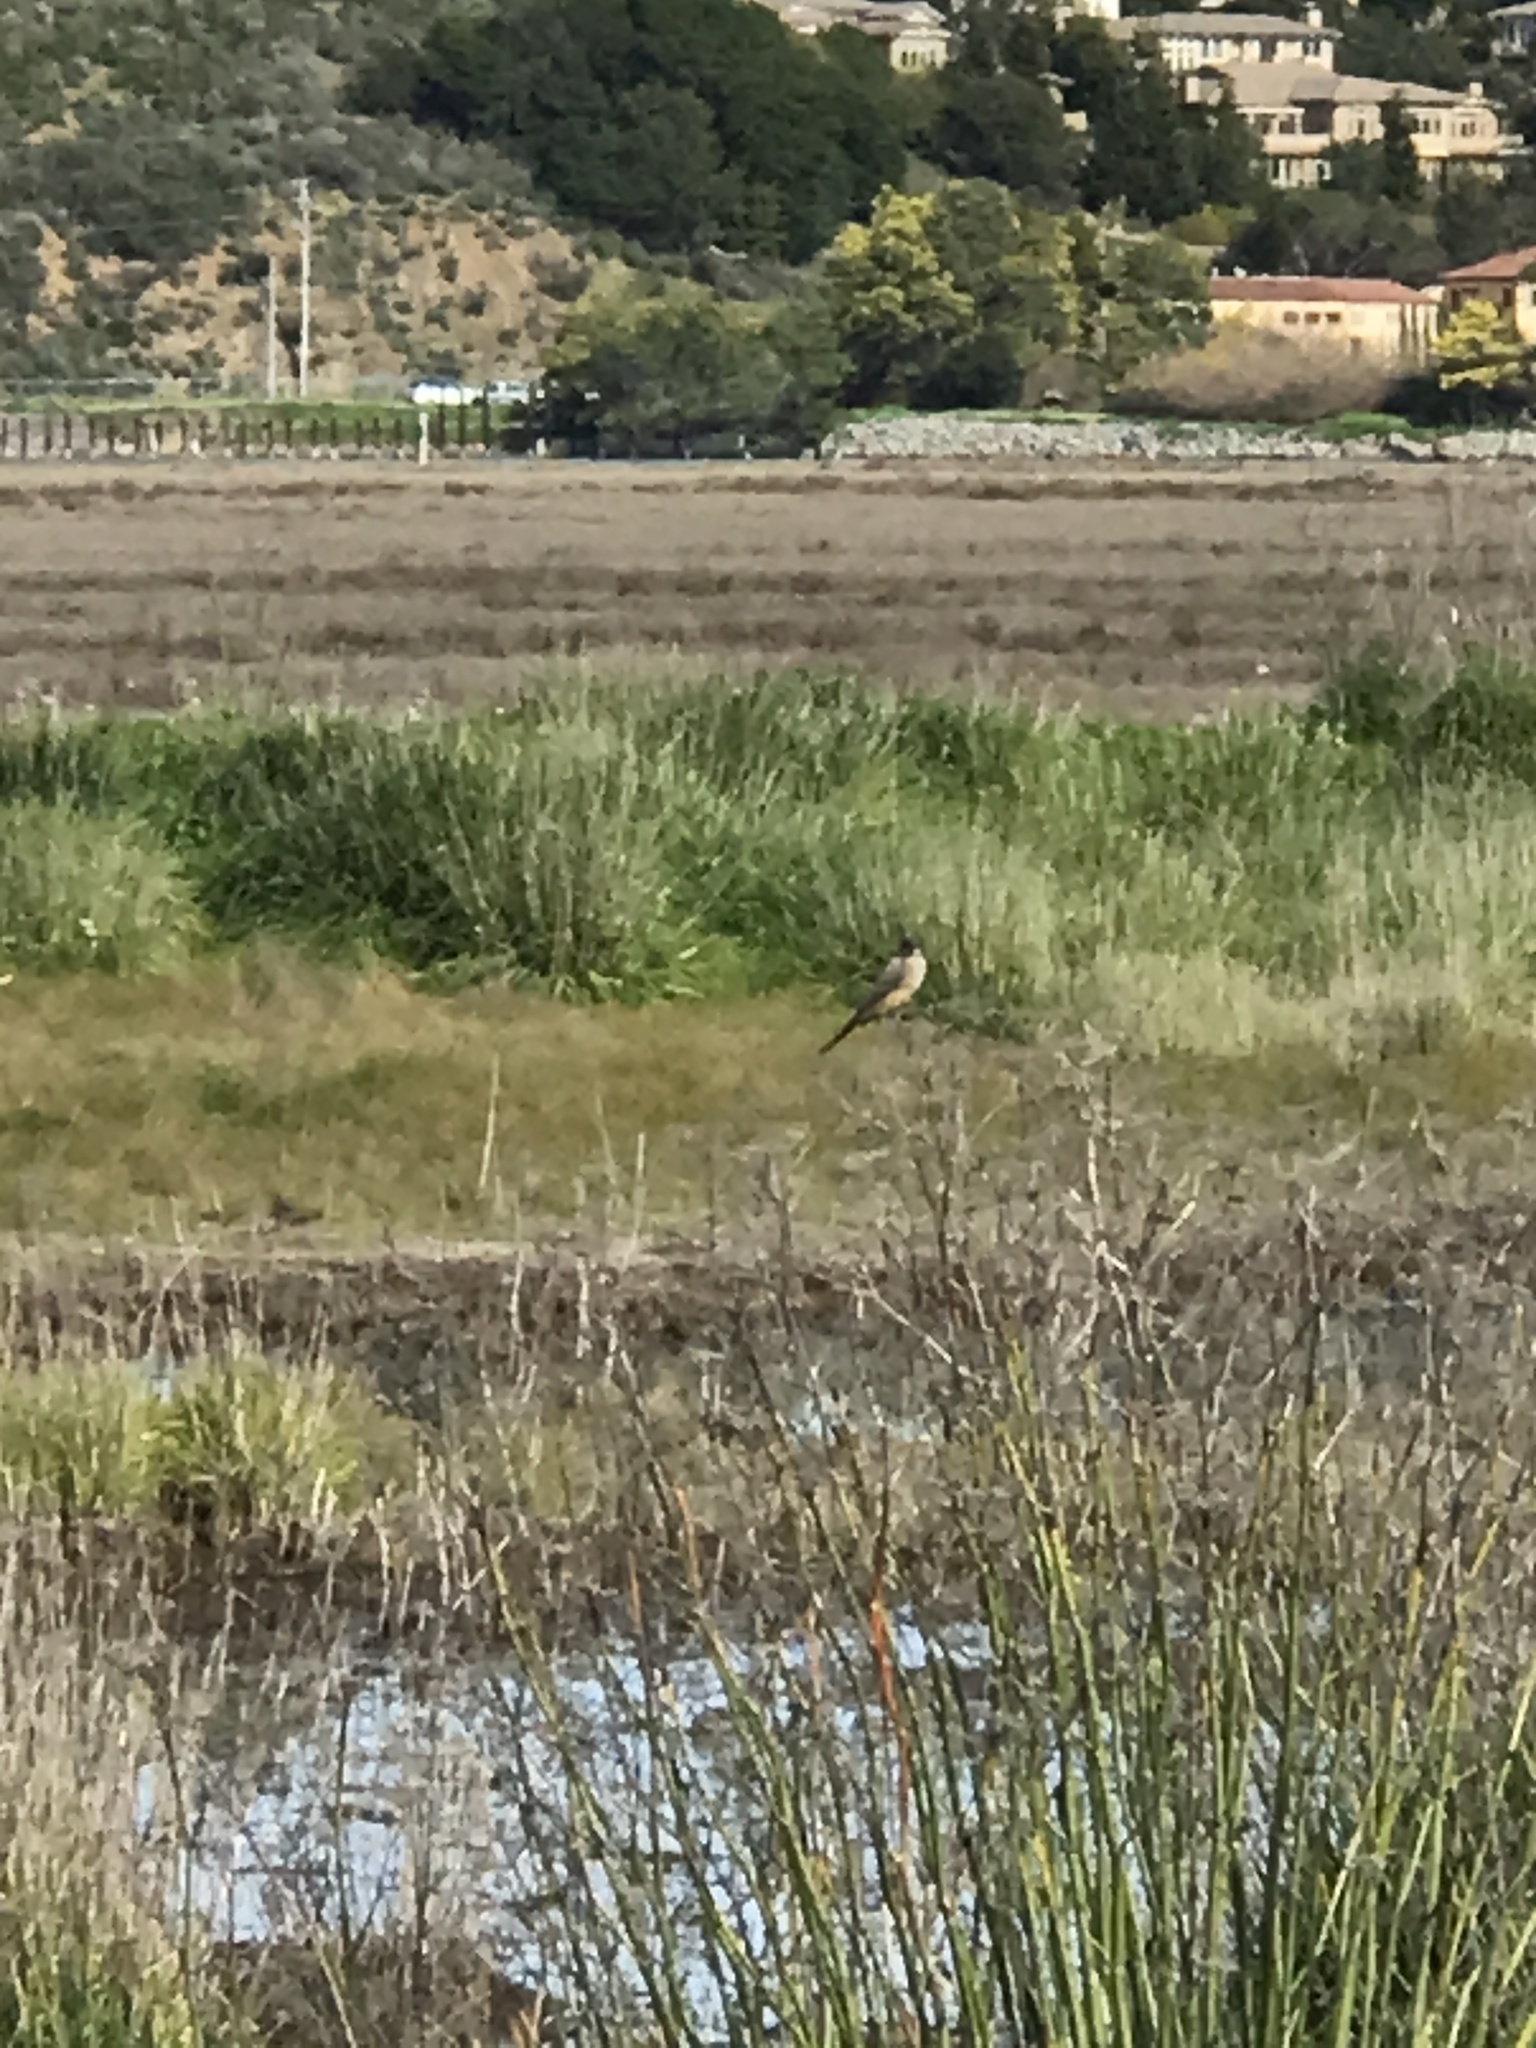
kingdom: Animalia
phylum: Chordata
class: Aves
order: Passeriformes
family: Tyrannidae
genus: Sayornis
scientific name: Sayornis saya
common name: Say's phoebe
